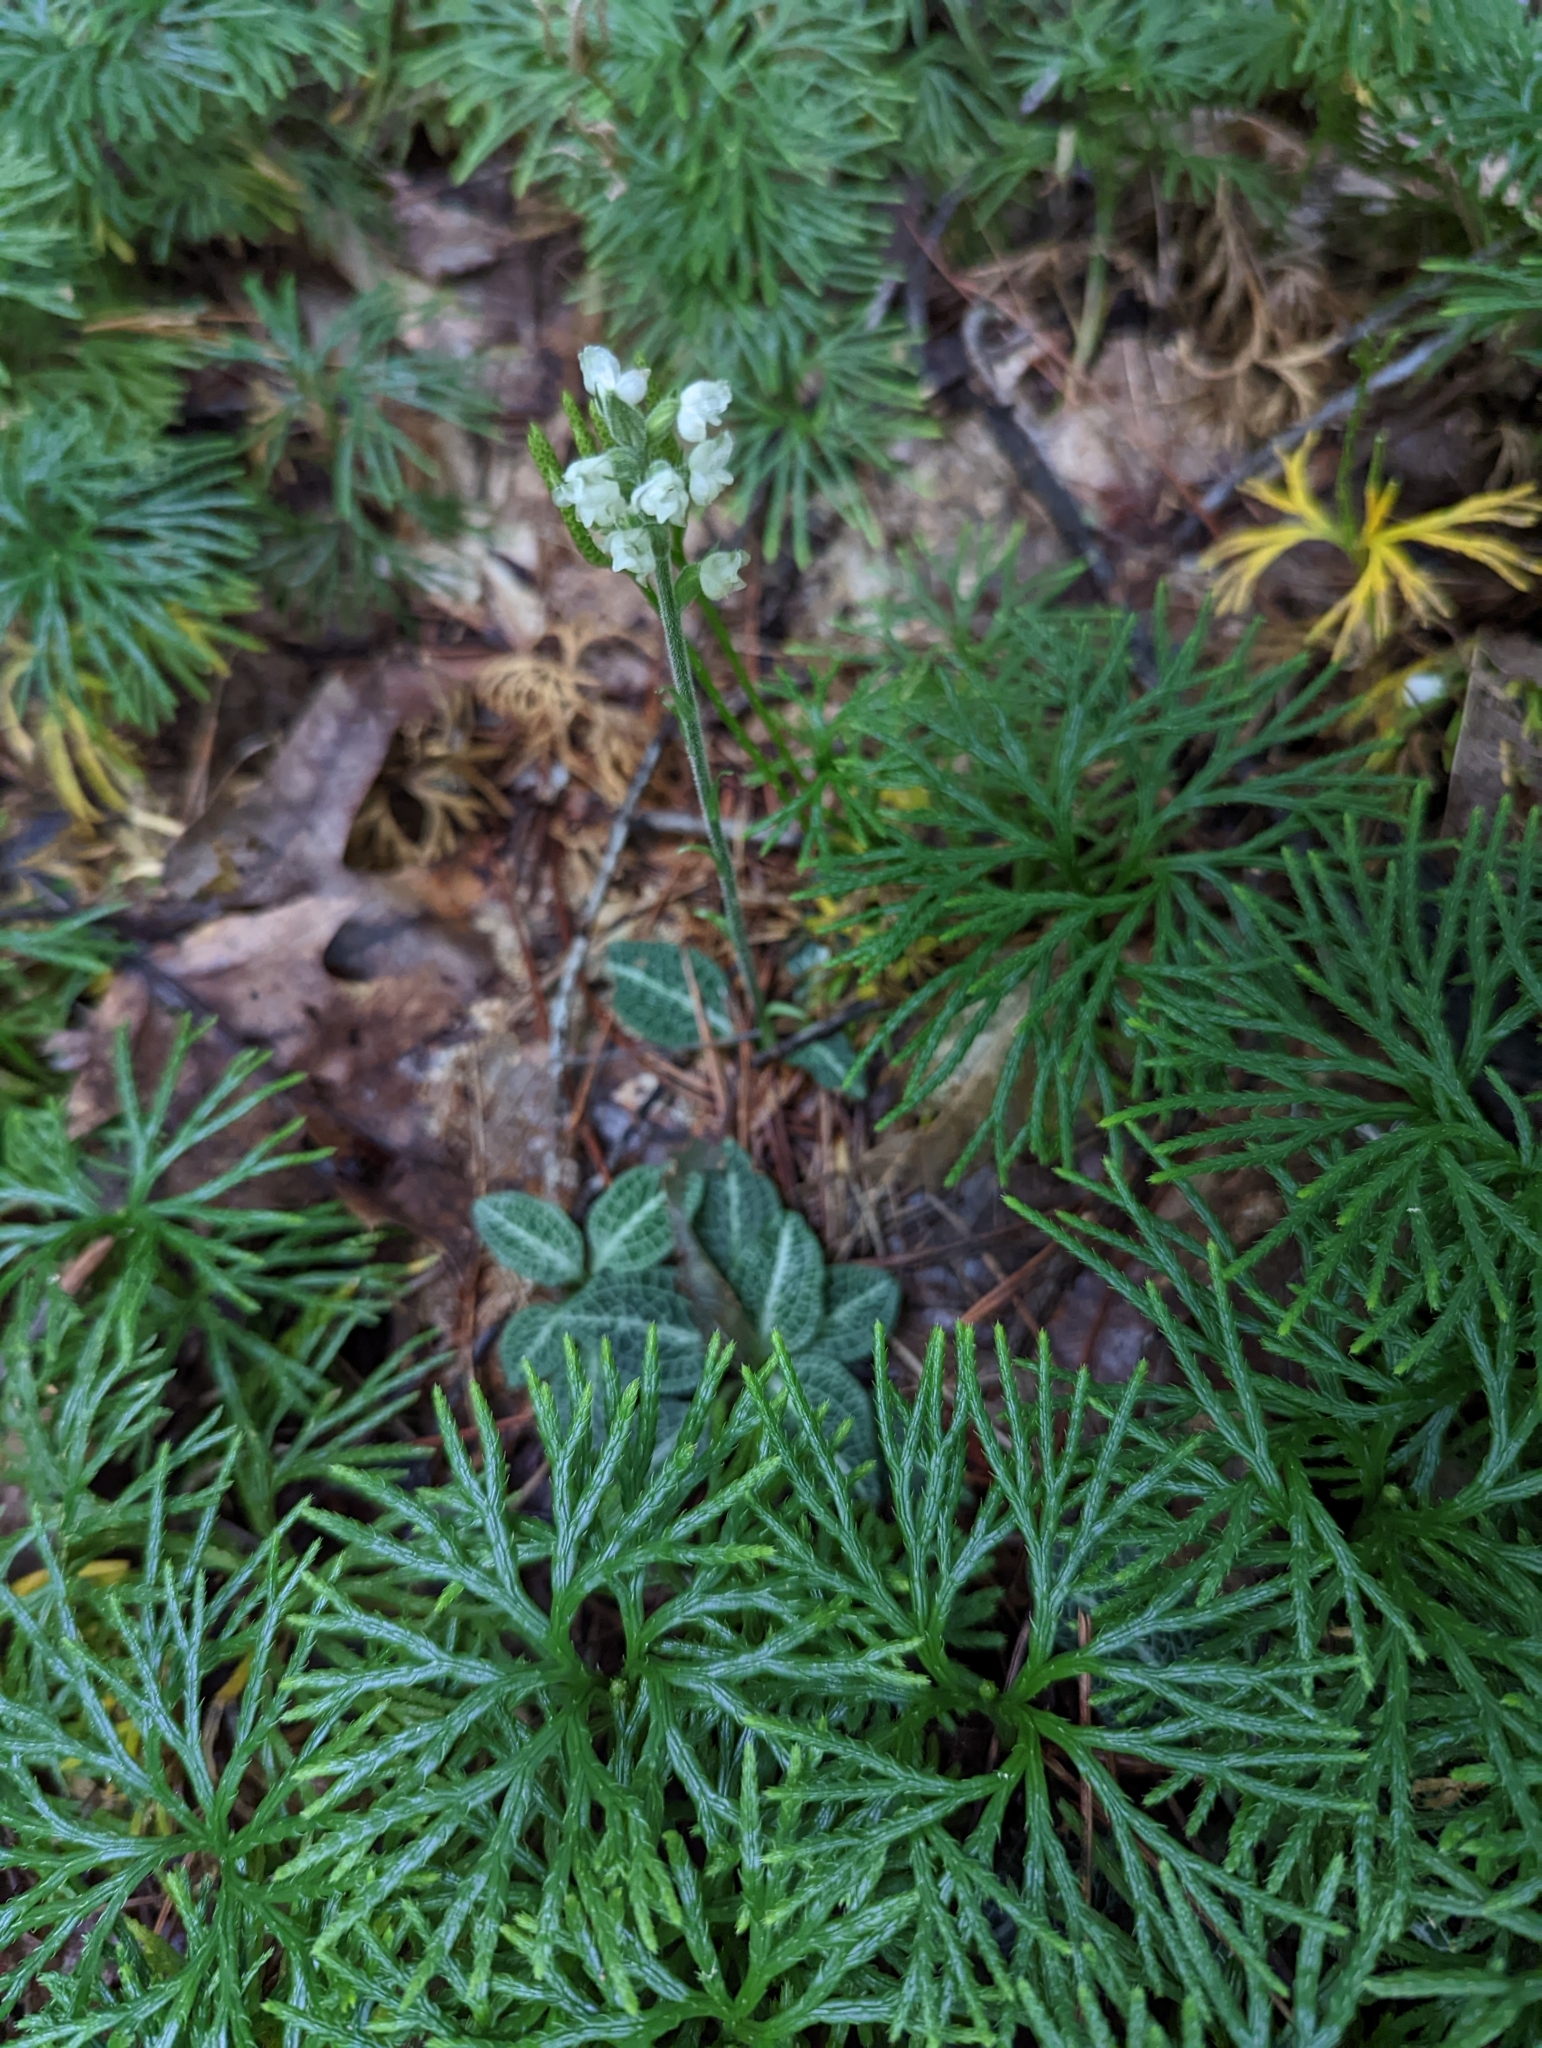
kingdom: Plantae
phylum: Tracheophyta
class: Liliopsida
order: Asparagales
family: Orchidaceae
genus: Goodyera
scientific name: Goodyera pubescens
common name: Downy rattlesnake-plantain
